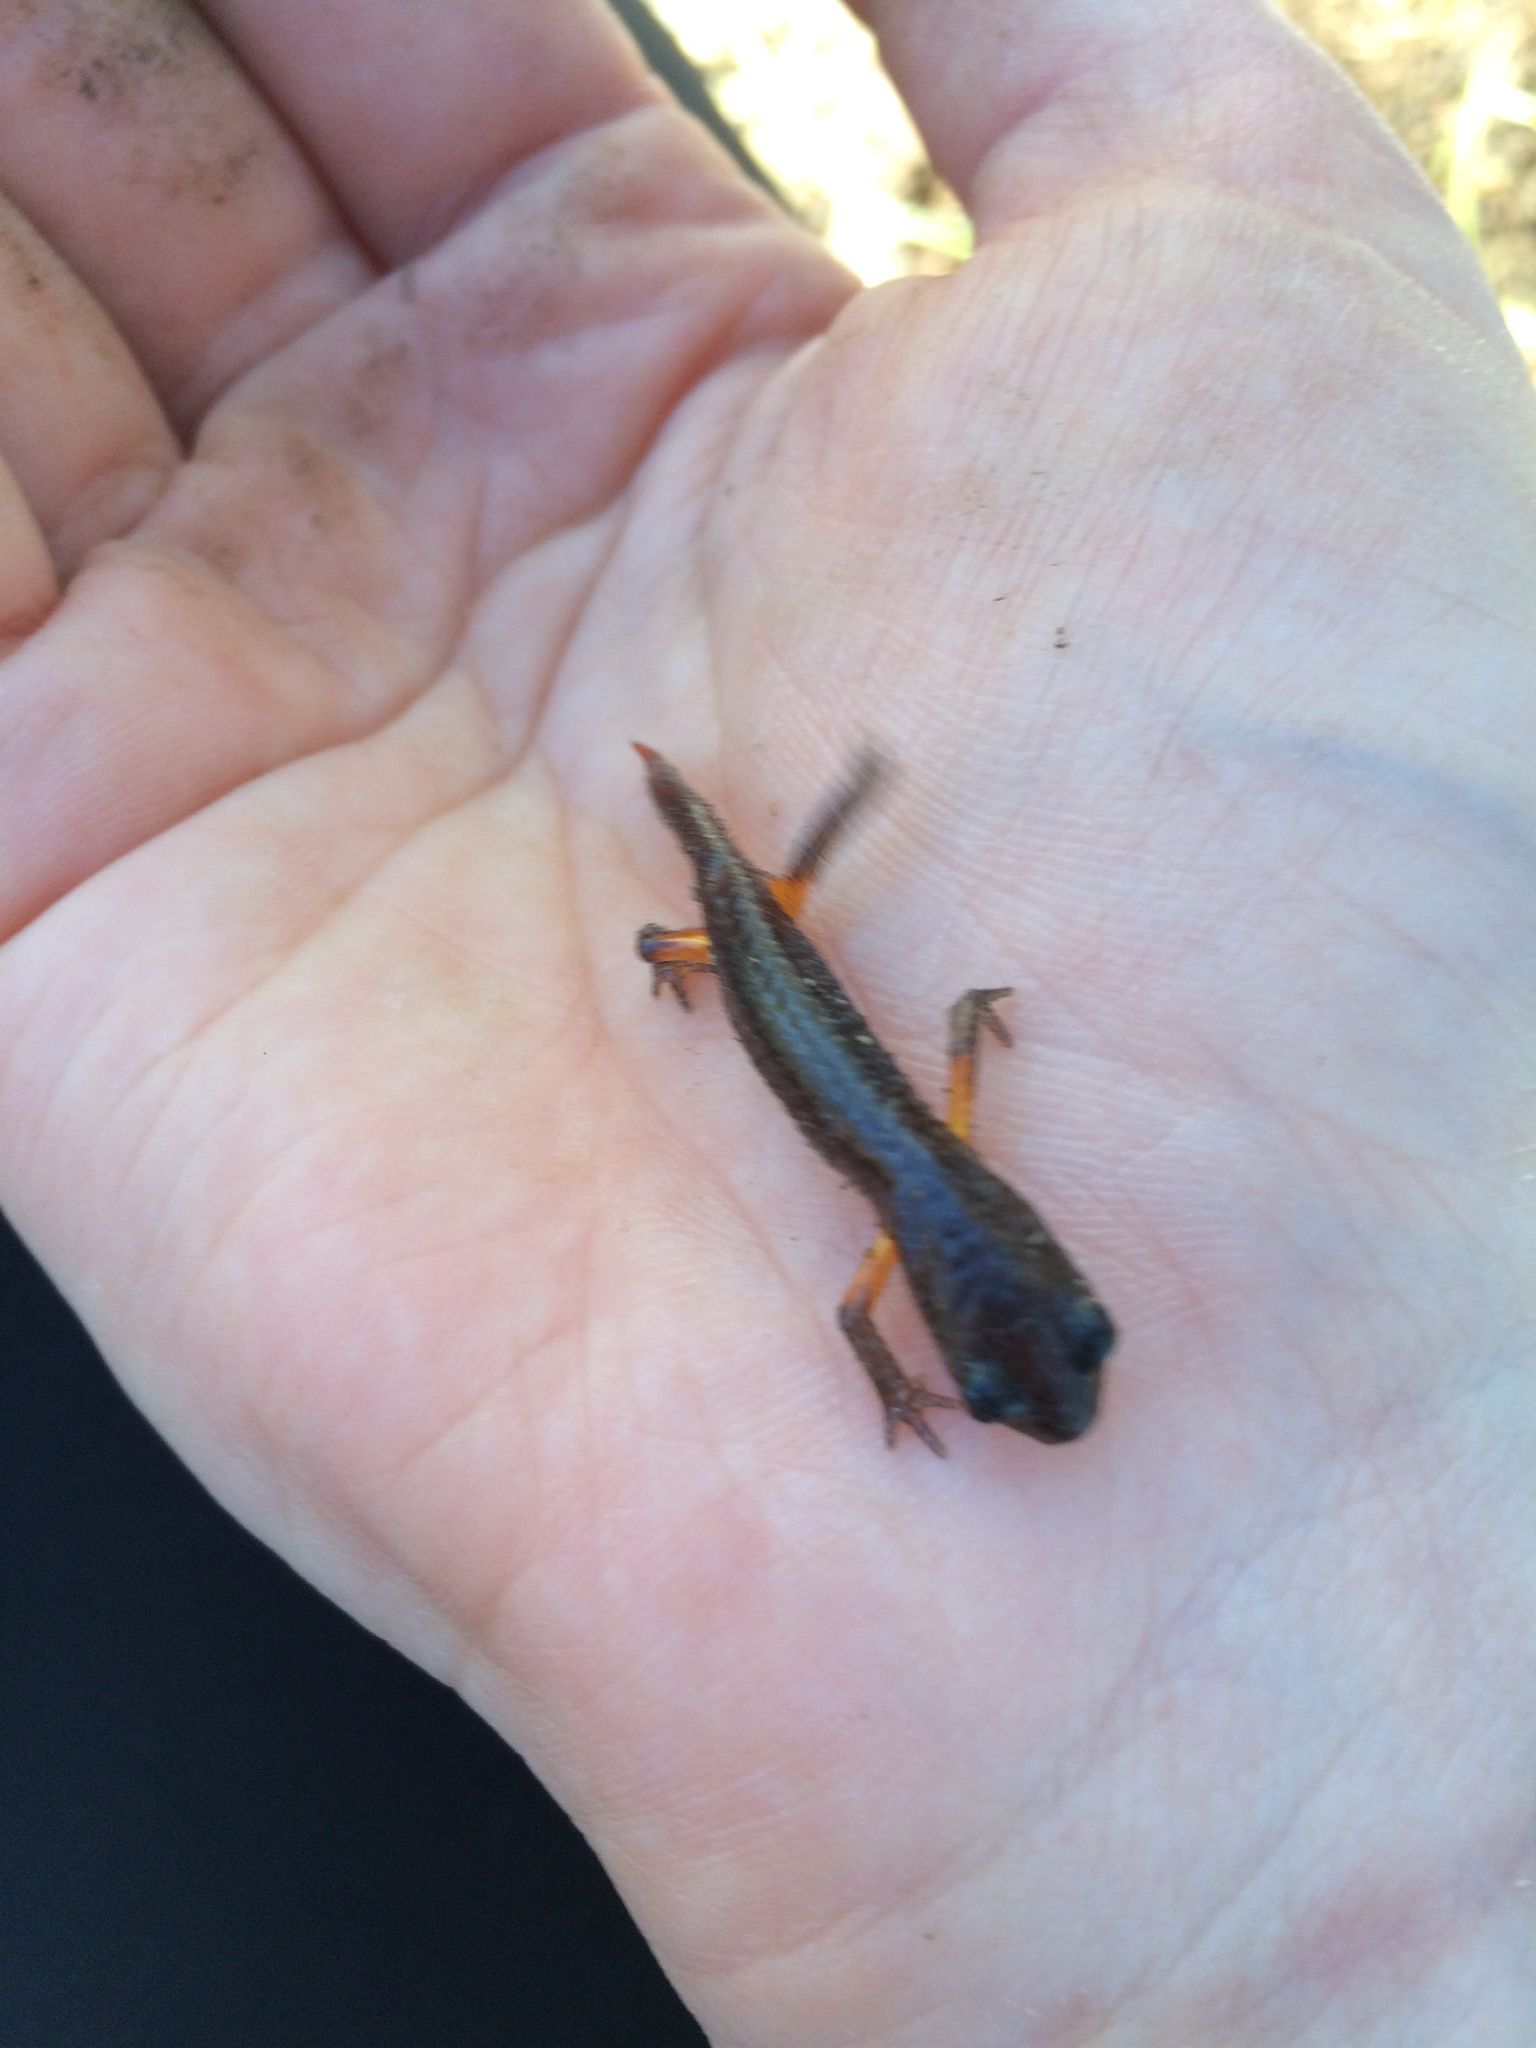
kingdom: Animalia
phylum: Chordata
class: Amphibia
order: Caudata
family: Plethodontidae
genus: Ensatina
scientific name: Ensatina eschscholtzii
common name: Ensatina
